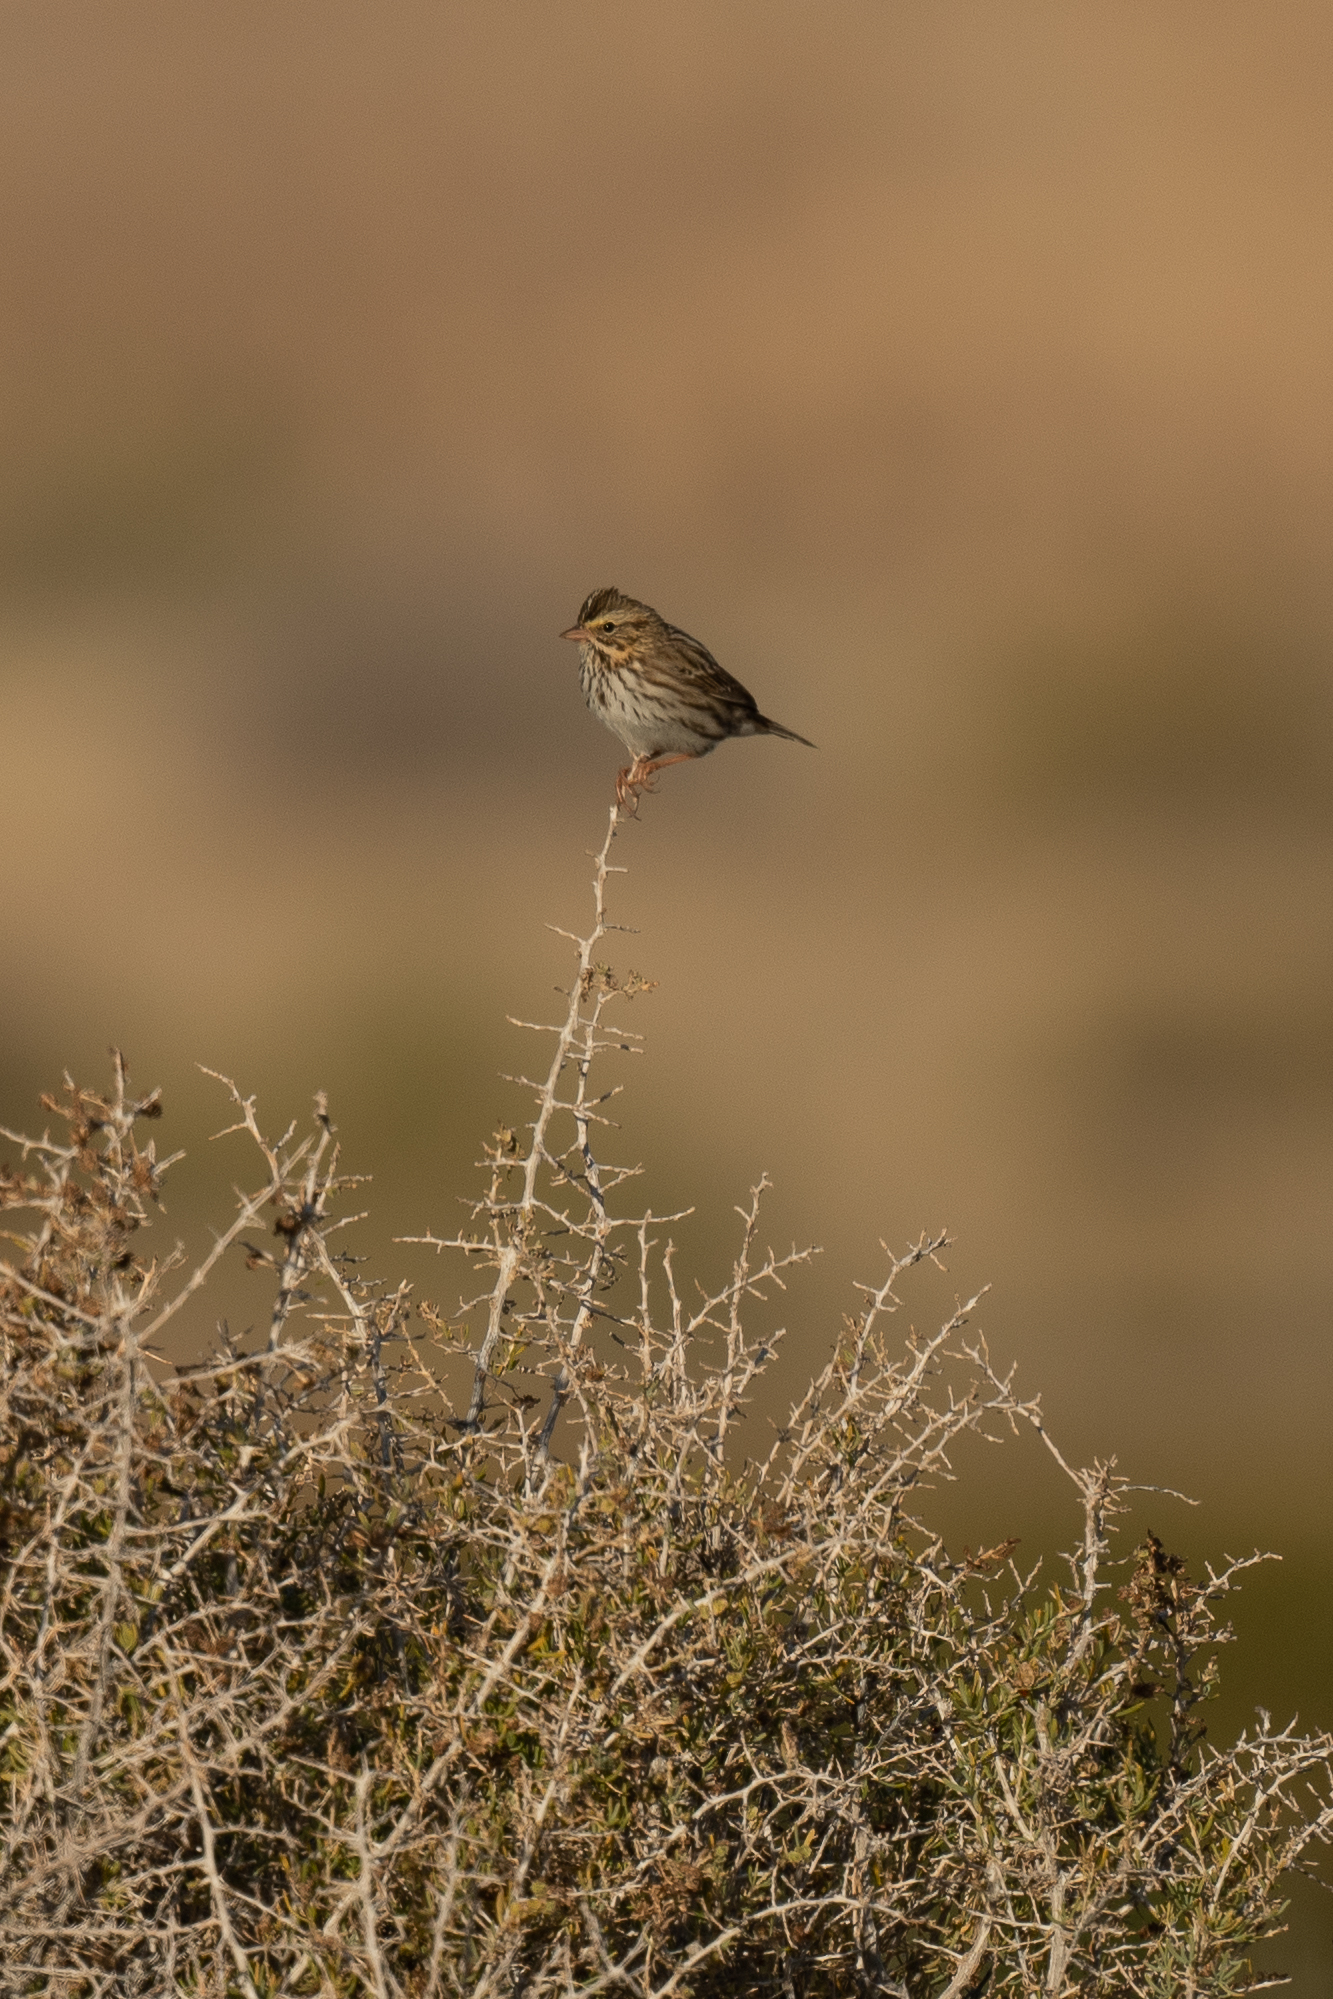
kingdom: Animalia
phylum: Chordata
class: Aves
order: Passeriformes
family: Passerellidae
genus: Passerculus
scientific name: Passerculus sandwichensis
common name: Savannah sparrow
